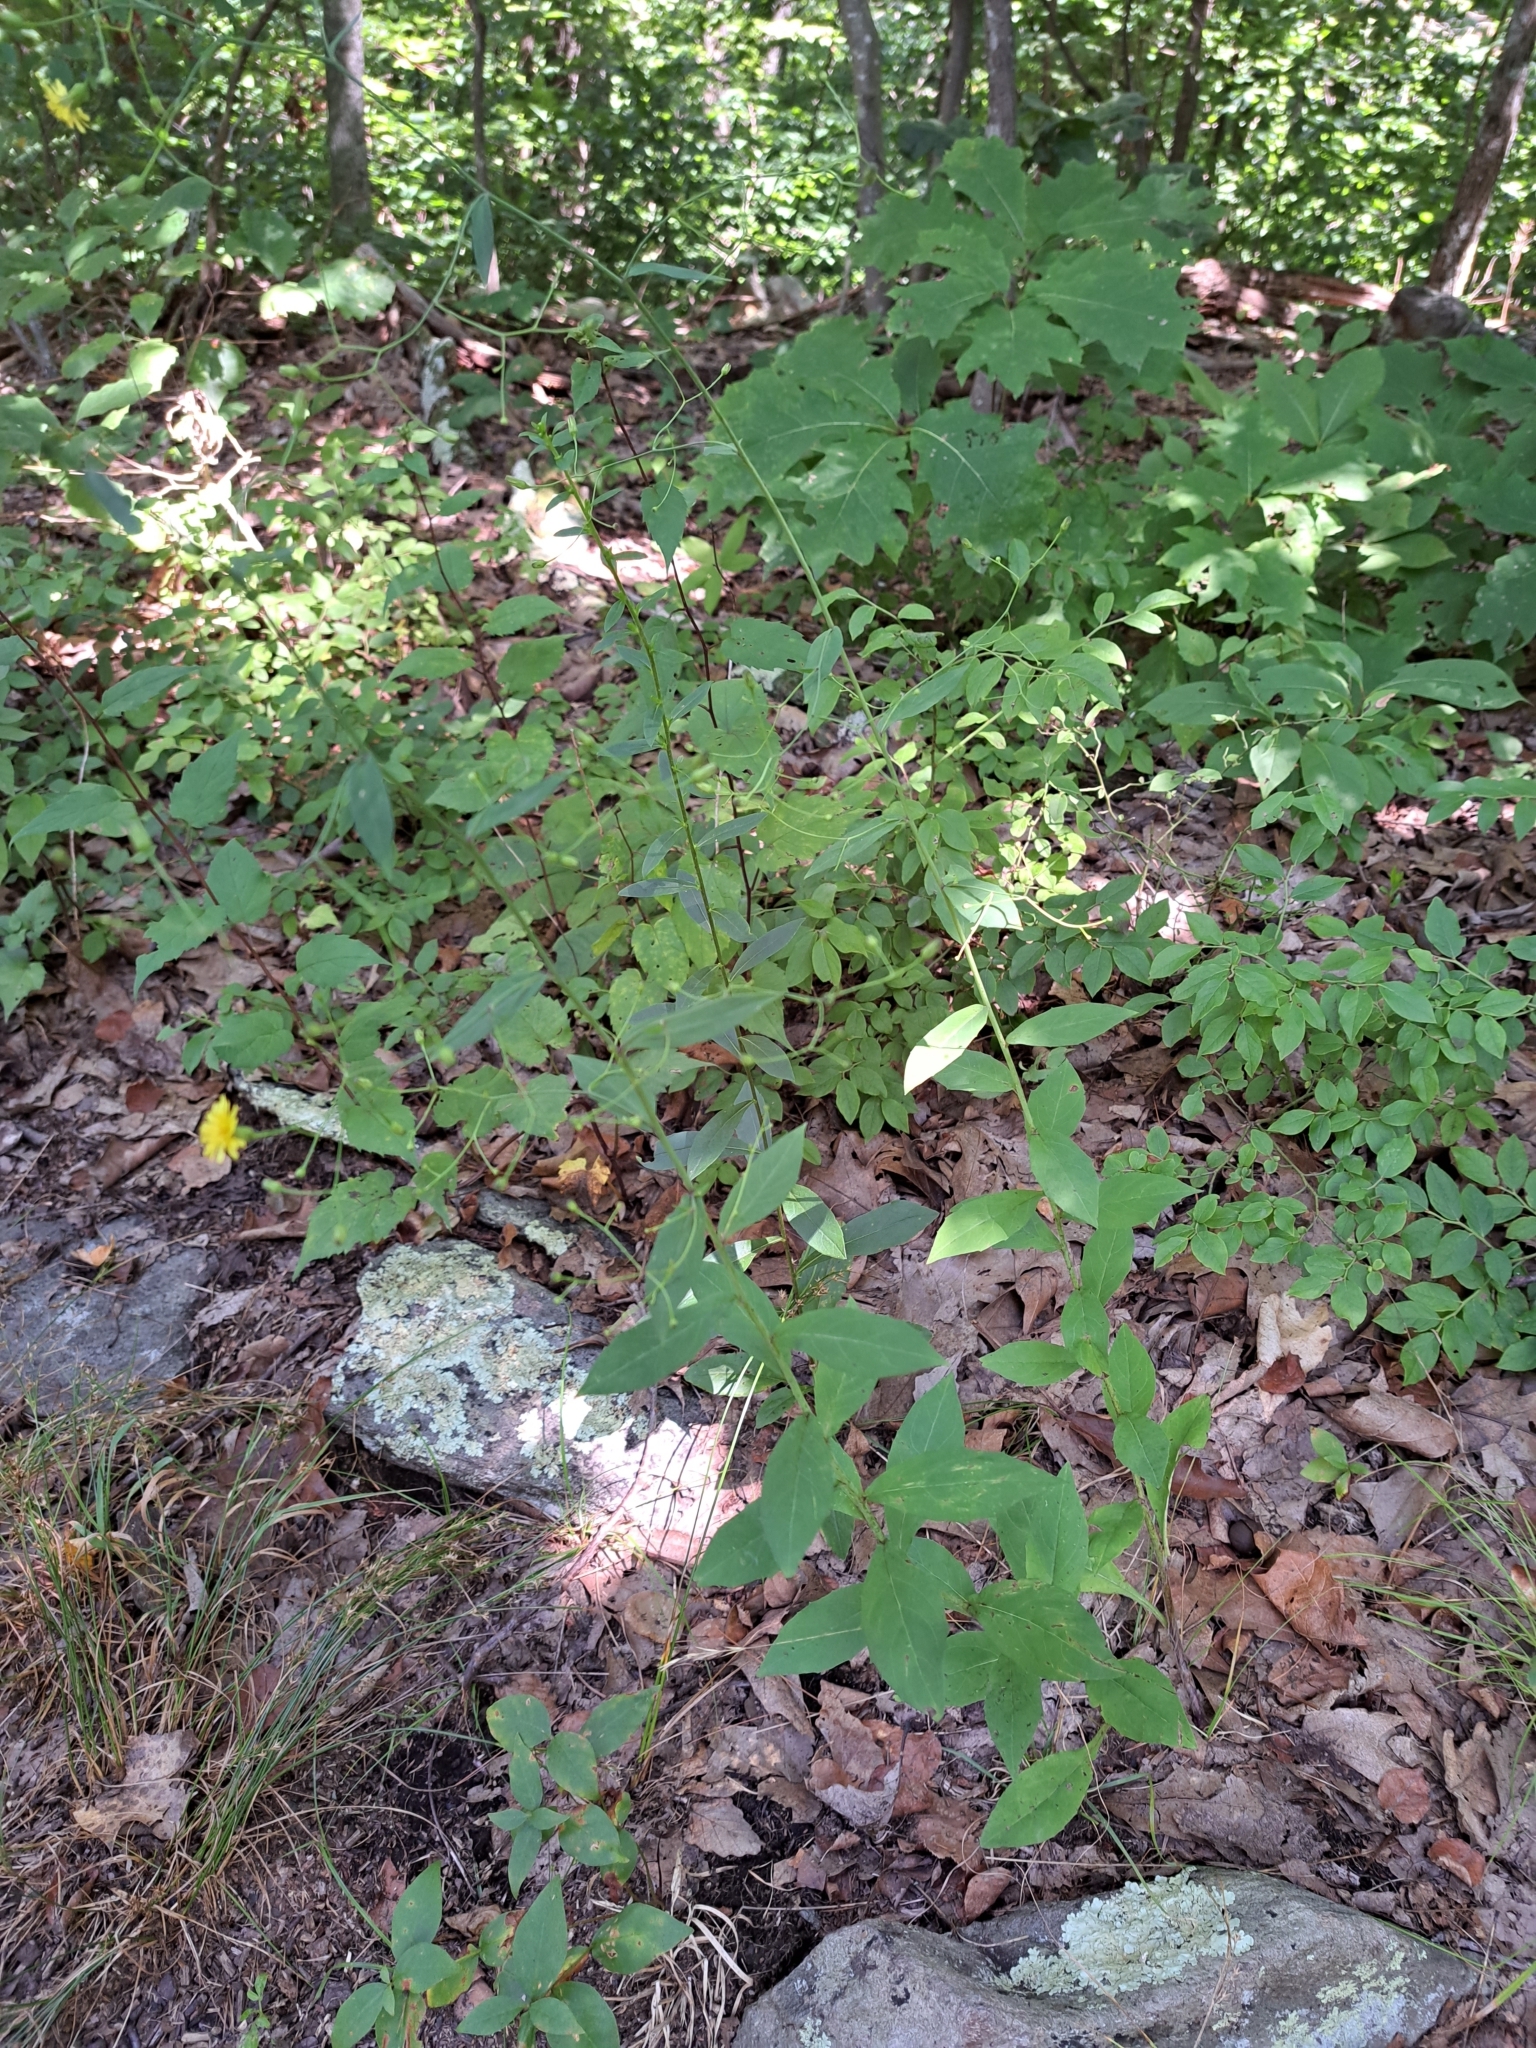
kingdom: Plantae
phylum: Tracheophyta
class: Magnoliopsida
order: Asterales
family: Asteraceae
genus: Hieracium
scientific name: Hieracium paniculatum
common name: Allegheny hawkweed
